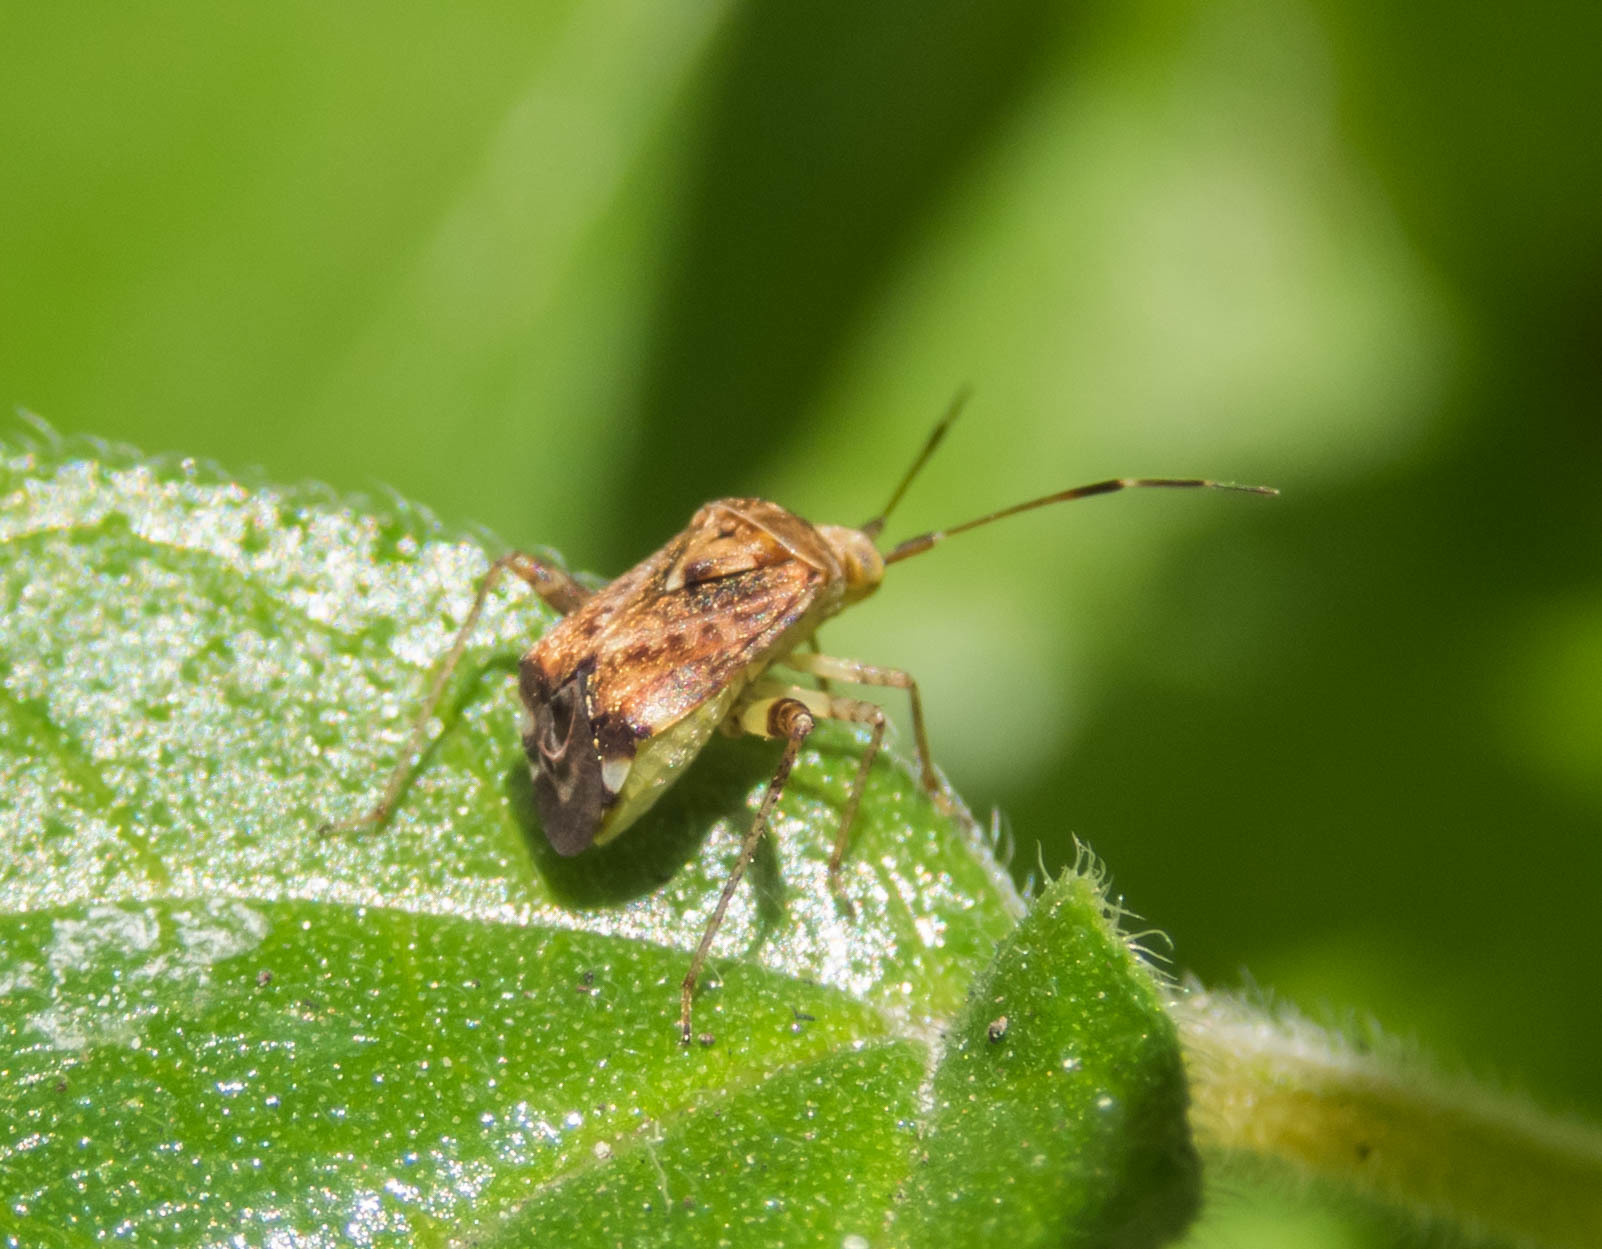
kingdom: Animalia
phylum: Arthropoda
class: Insecta
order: Hemiptera
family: Miridae
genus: Sidnia
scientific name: Sidnia kinbergi
